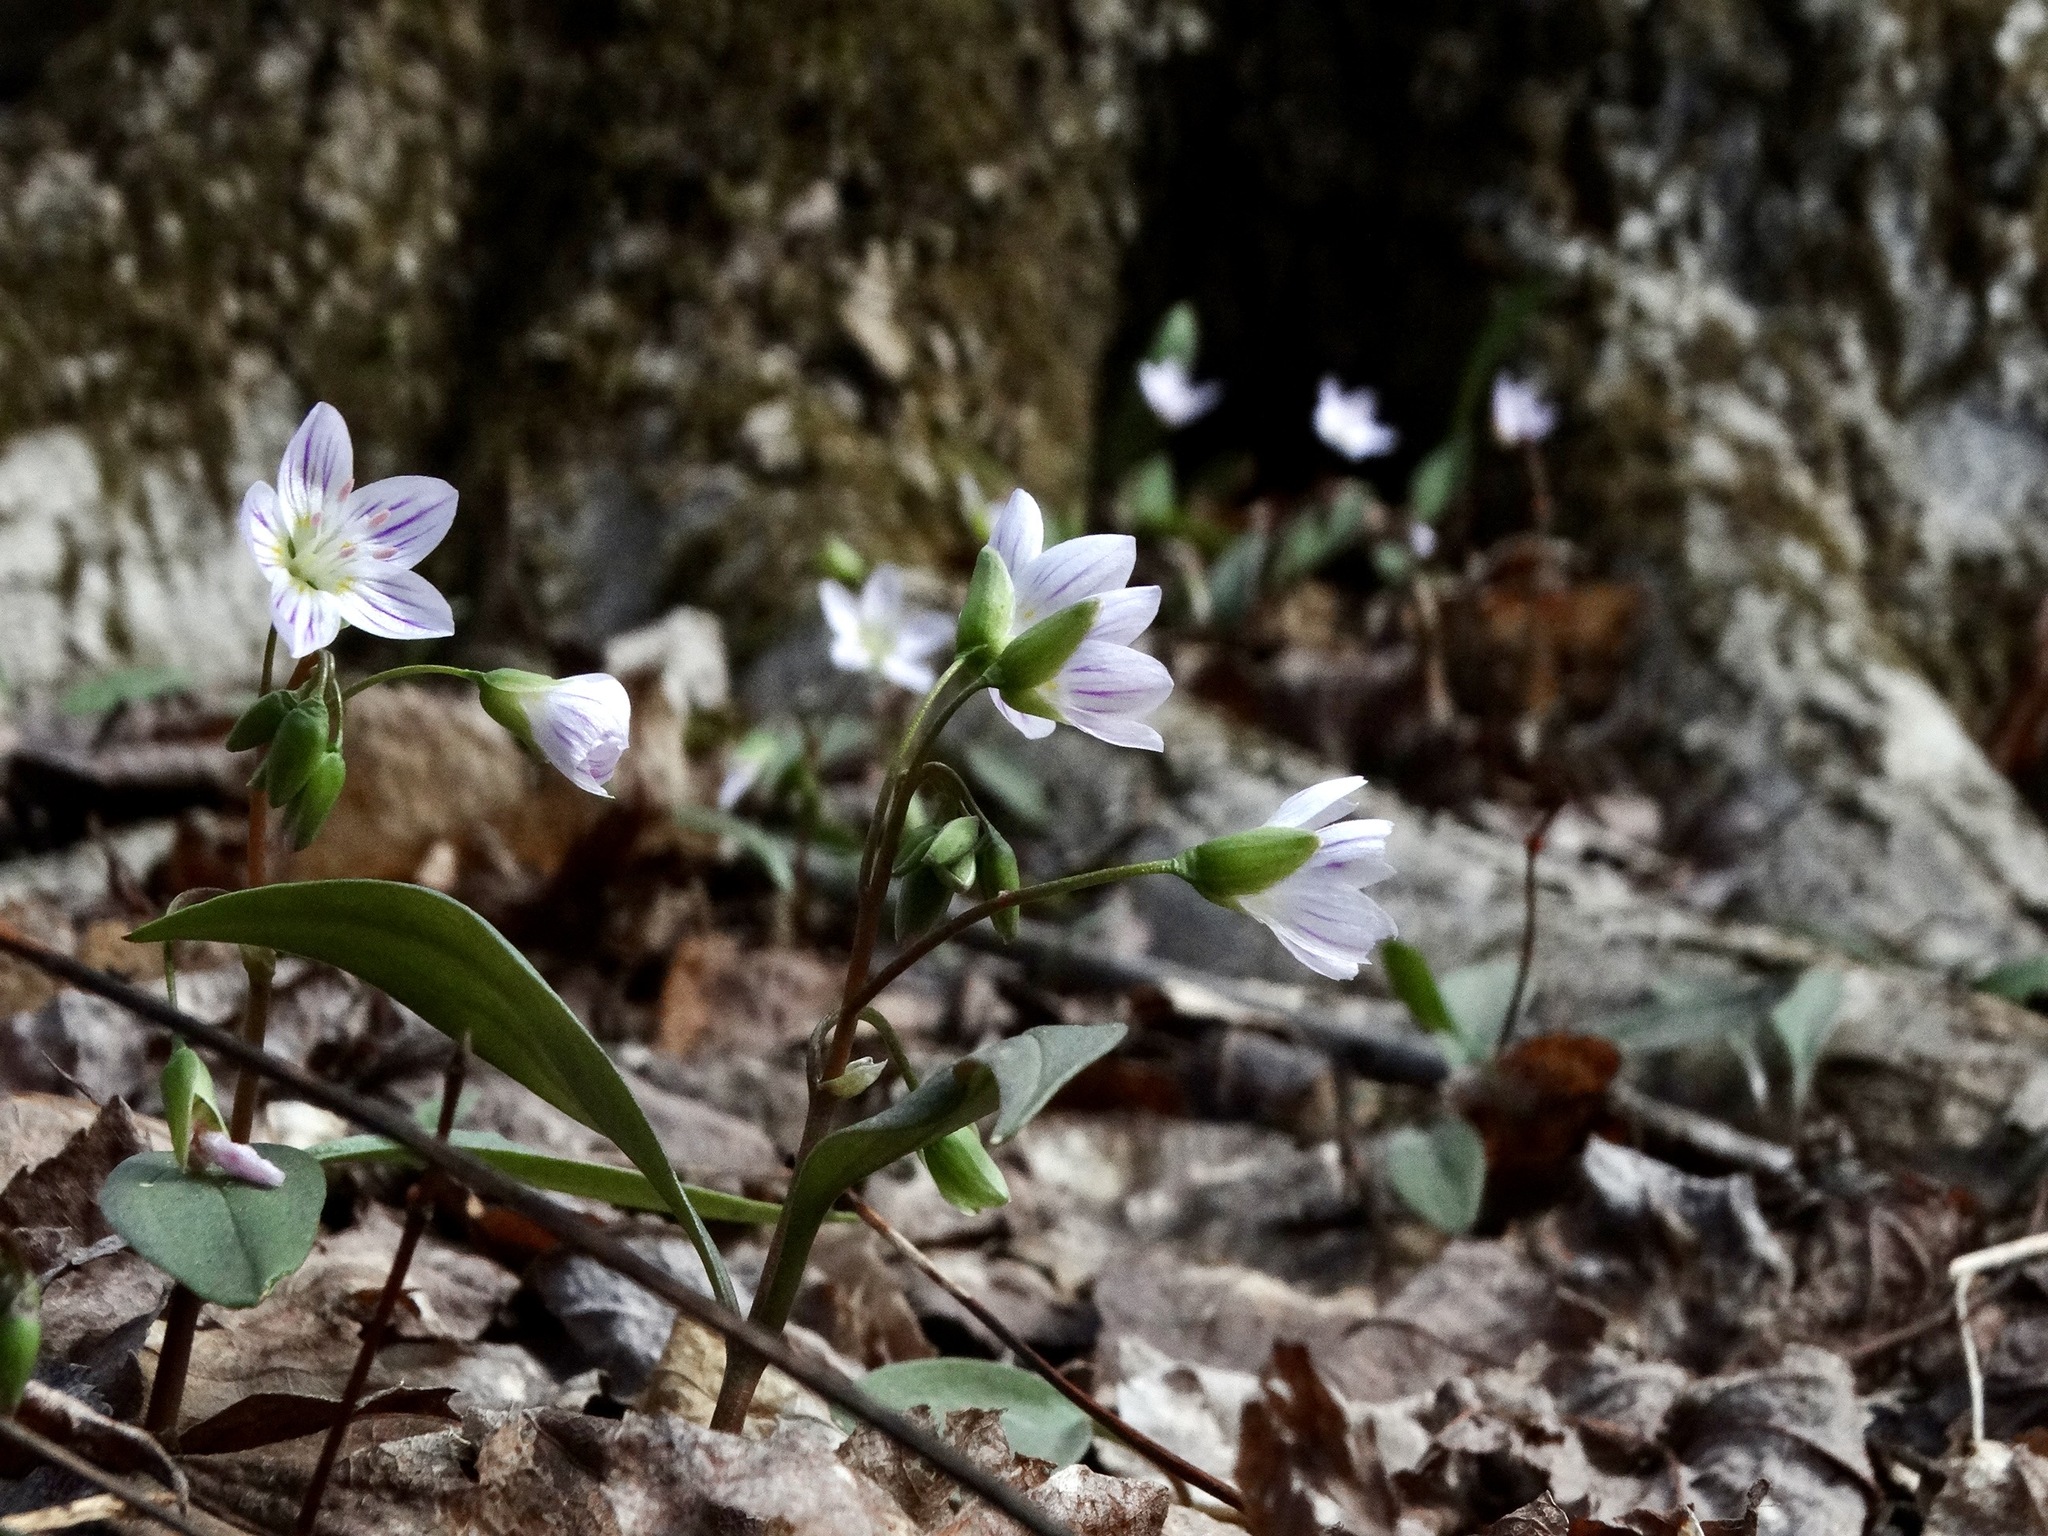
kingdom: Plantae
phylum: Tracheophyta
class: Magnoliopsida
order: Caryophyllales
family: Montiaceae
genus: Claytonia
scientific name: Claytonia caroliniana
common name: Carolina spring beauty
